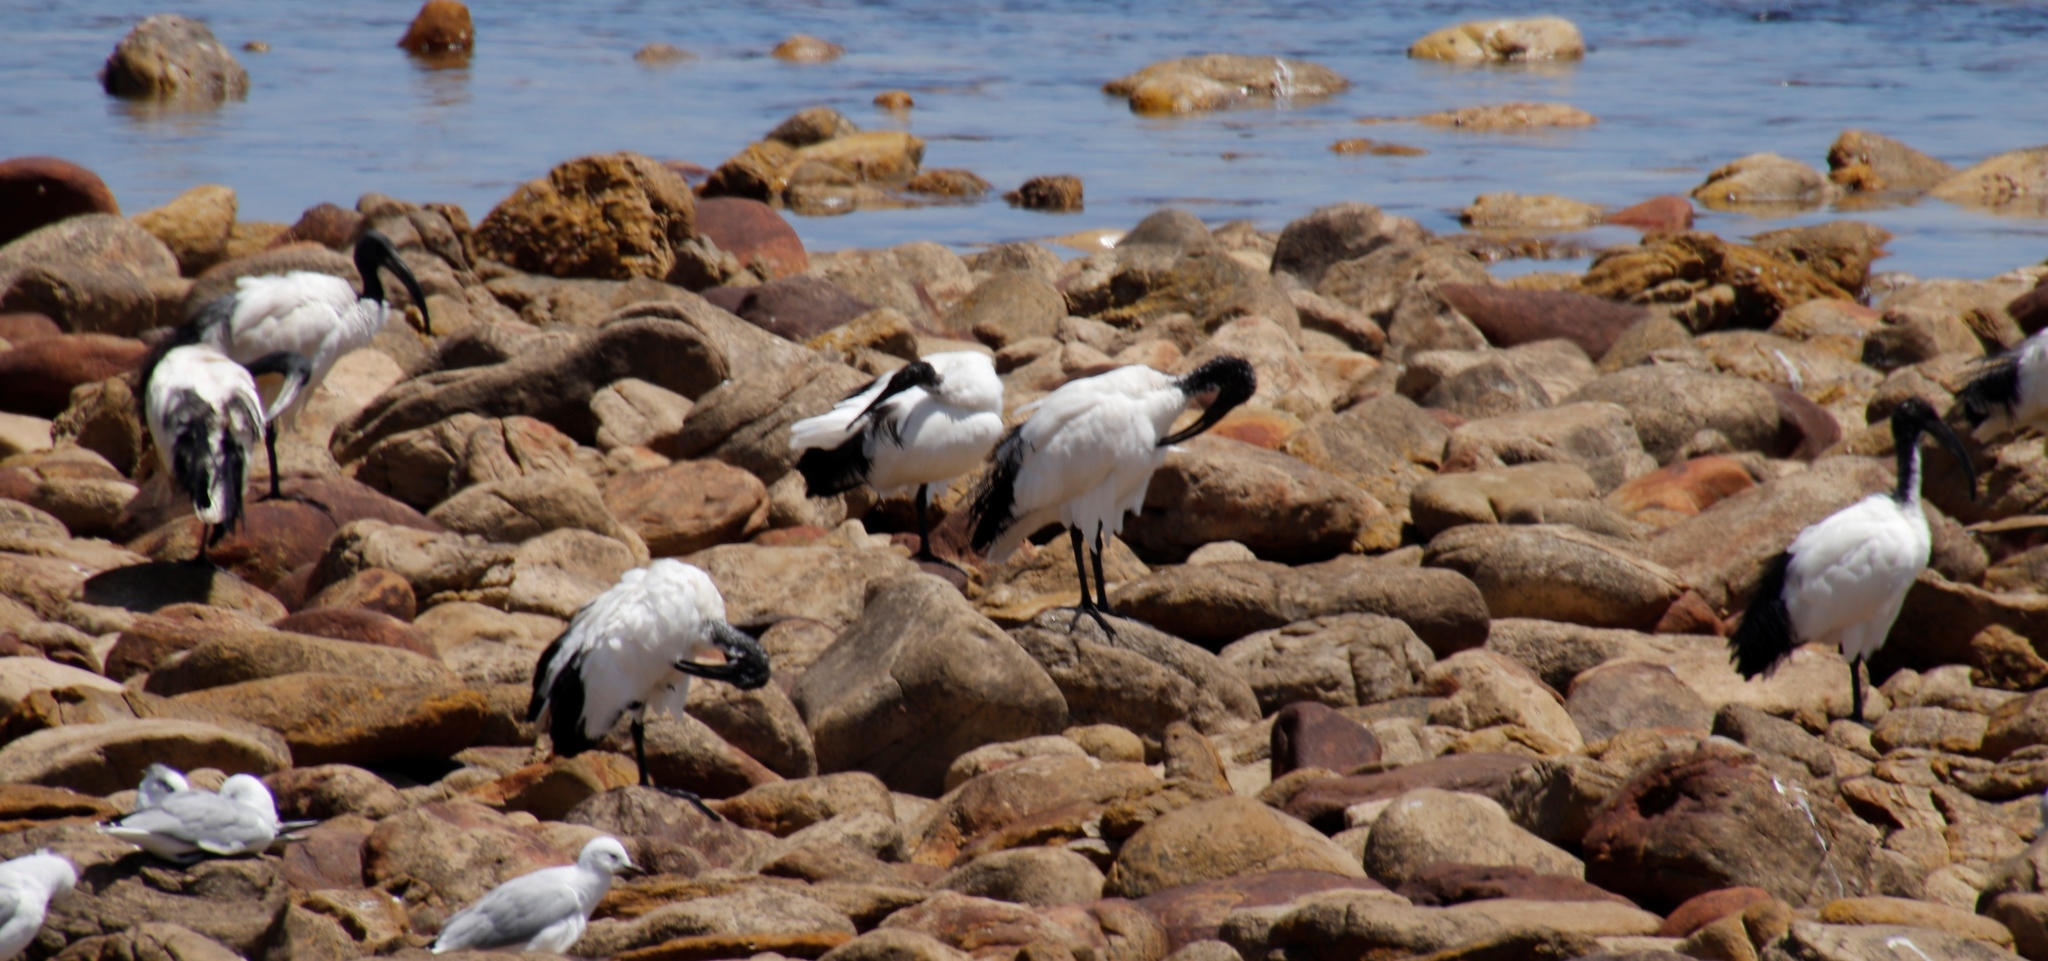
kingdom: Animalia
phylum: Chordata
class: Aves
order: Pelecaniformes
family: Threskiornithidae
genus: Threskiornis
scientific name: Threskiornis aethiopicus
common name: Sacred ibis
